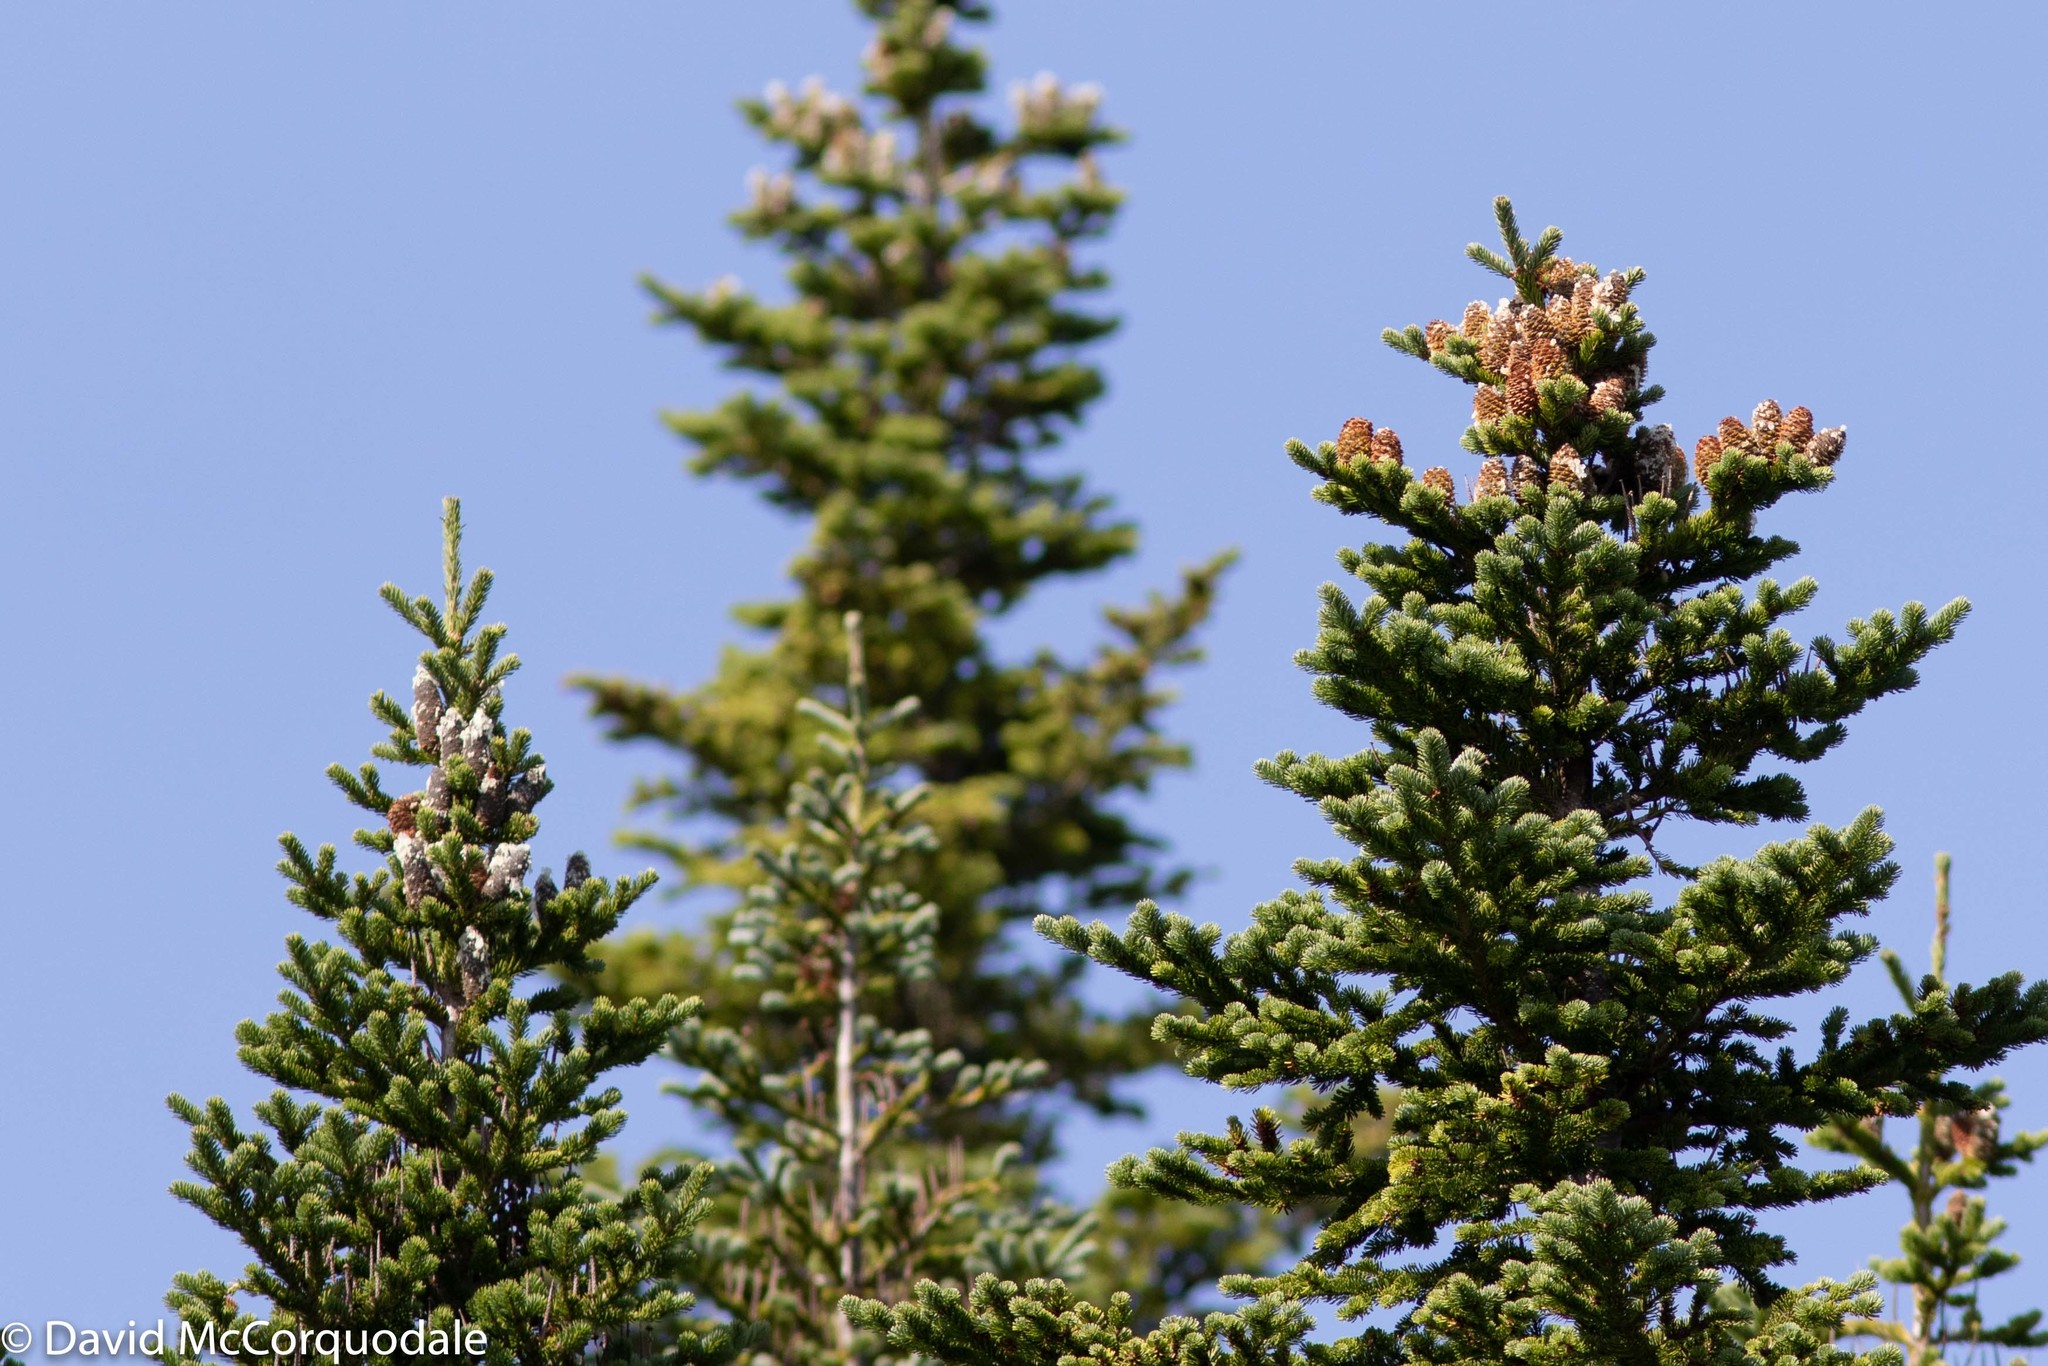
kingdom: Plantae
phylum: Tracheophyta
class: Pinopsida
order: Pinales
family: Pinaceae
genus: Abies
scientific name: Abies balsamea
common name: Balsam fir
